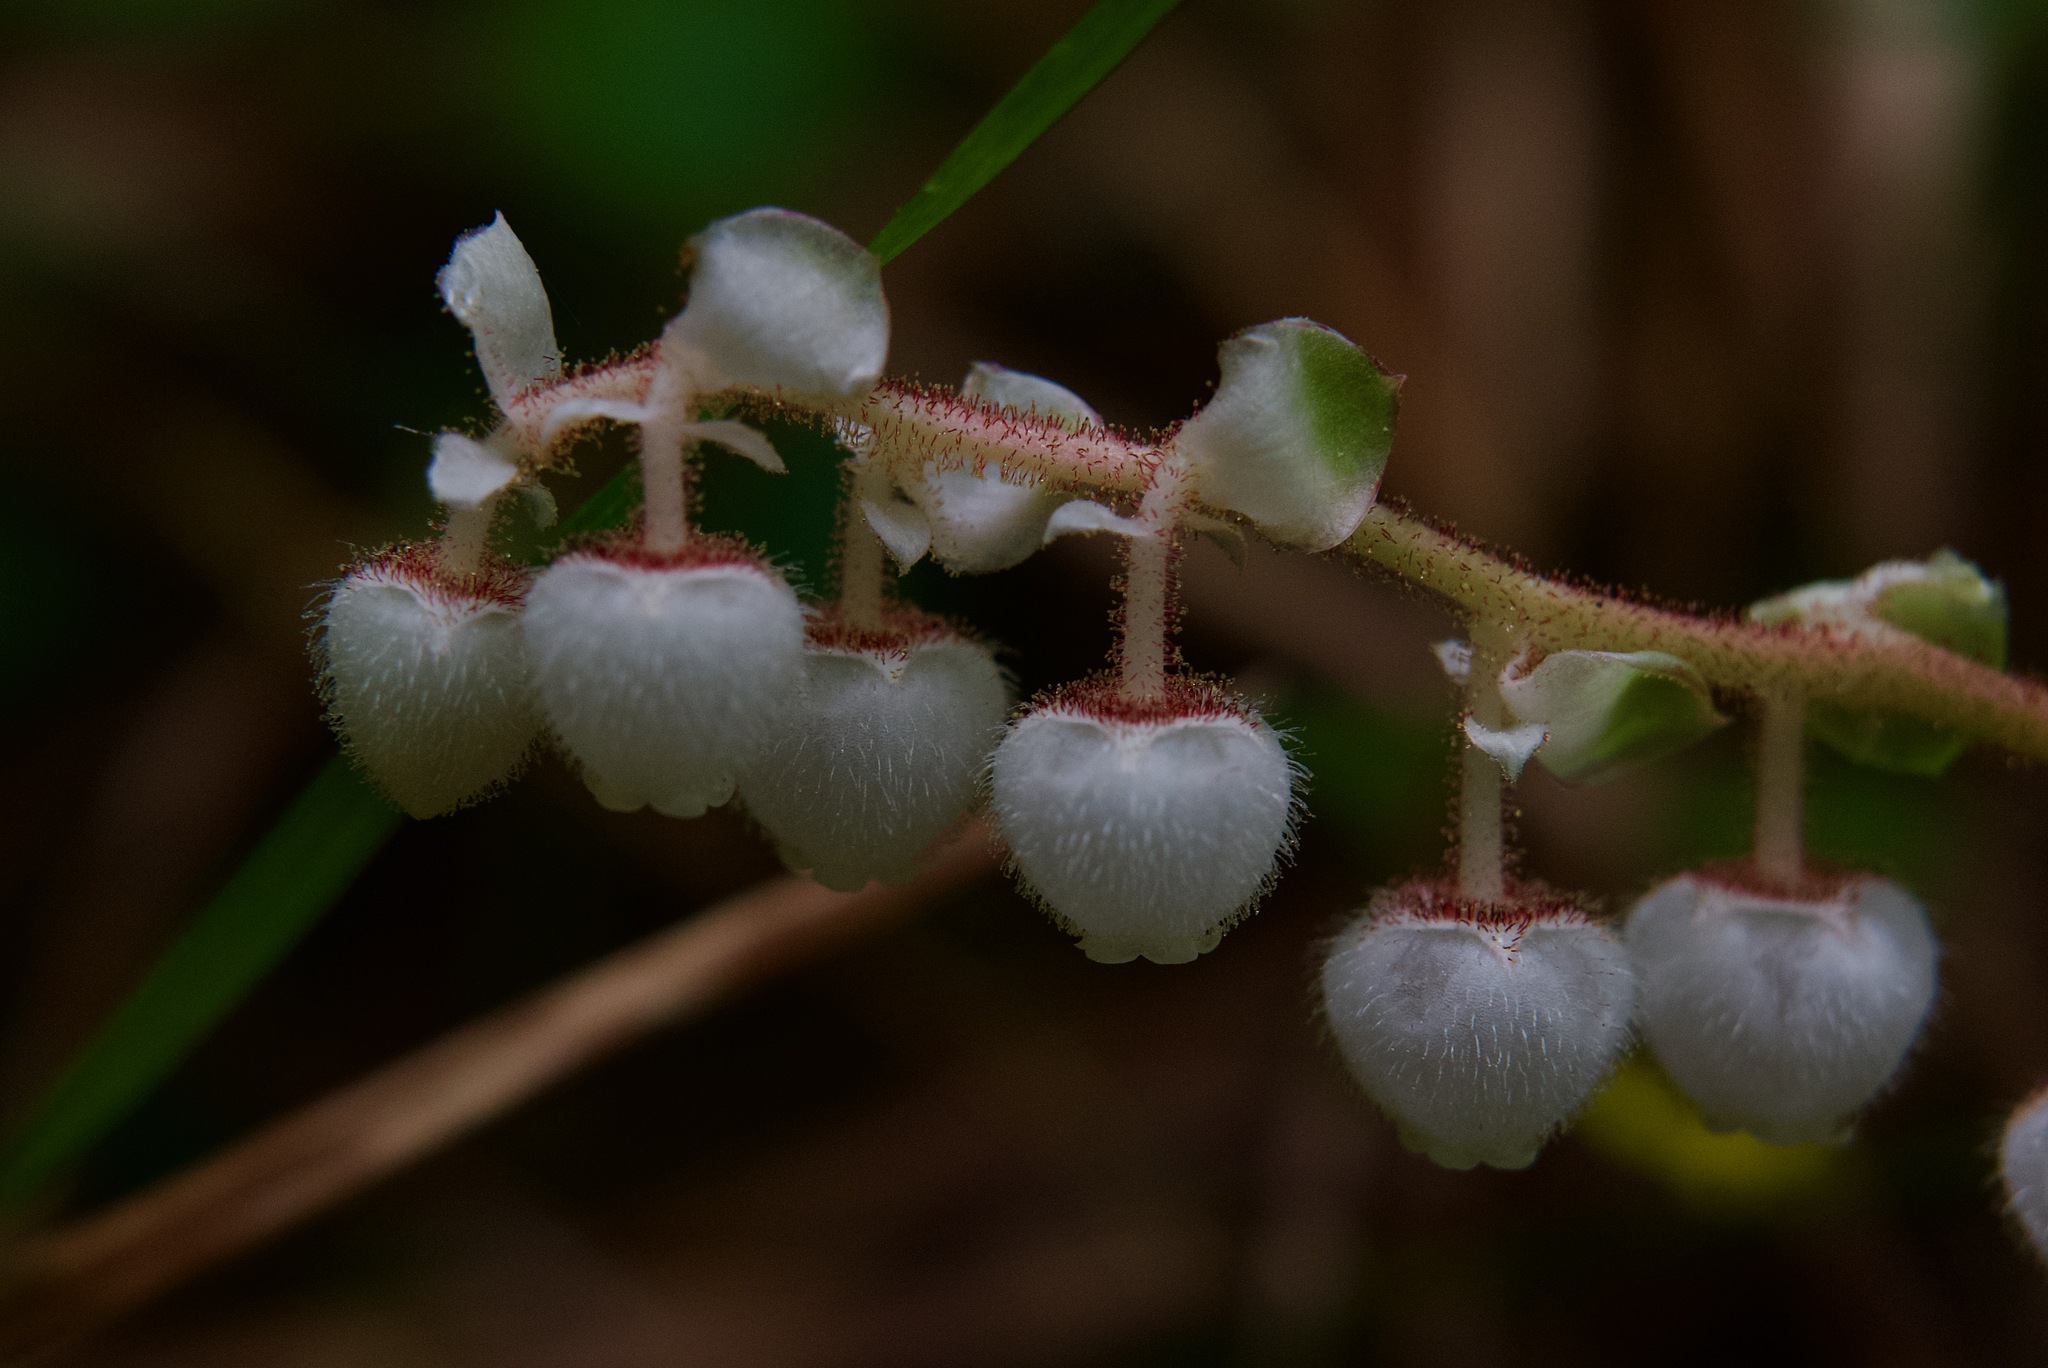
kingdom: Plantae
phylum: Tracheophyta
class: Magnoliopsida
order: Ericales
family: Ericaceae
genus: Gaultheria
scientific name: Gaultheria shallon
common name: Shallon
